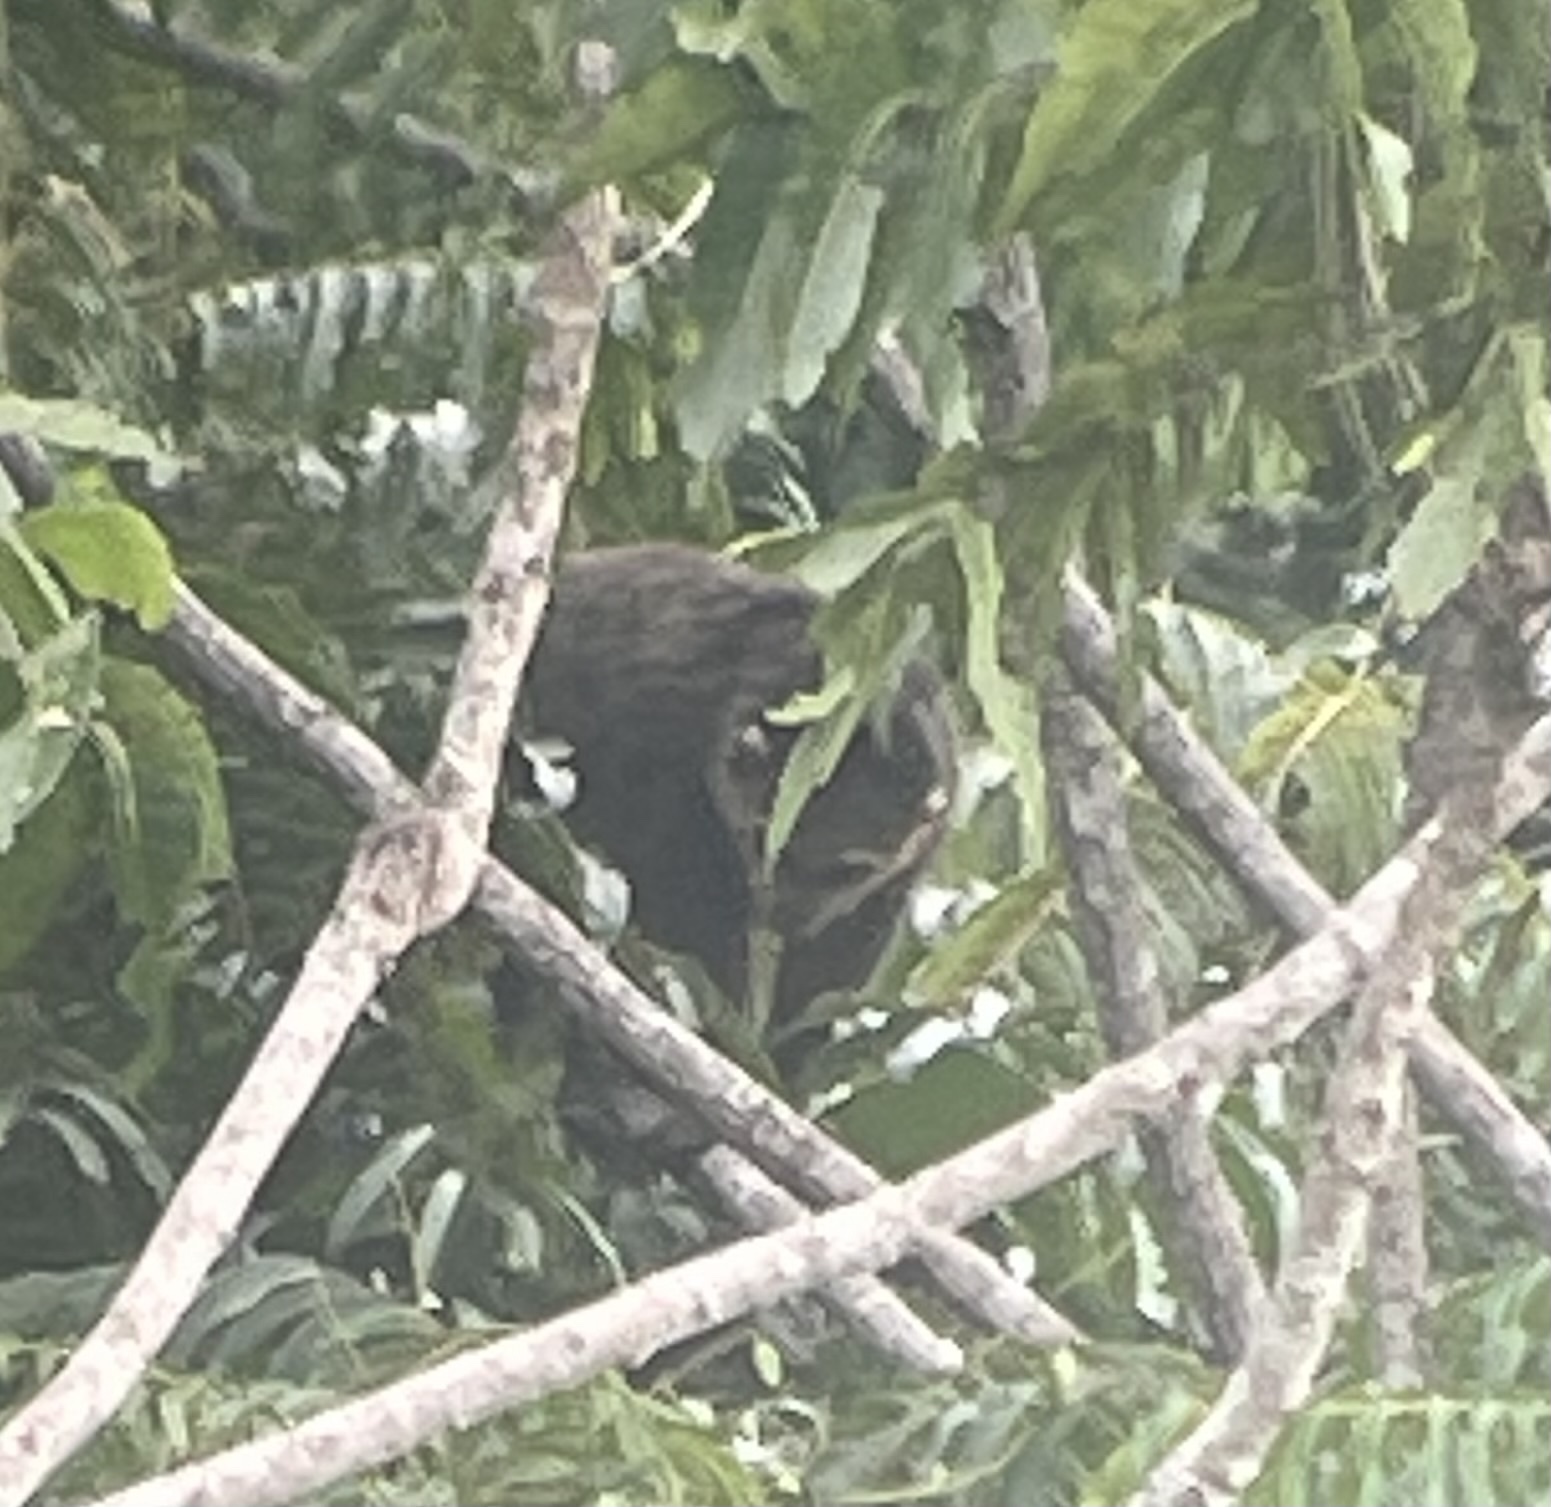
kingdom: Animalia
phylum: Chordata
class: Mammalia
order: Diprotodontia
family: Phalangeridae
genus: Ailurops
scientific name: Ailurops ursinus
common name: Sulawesi bear cuscus
